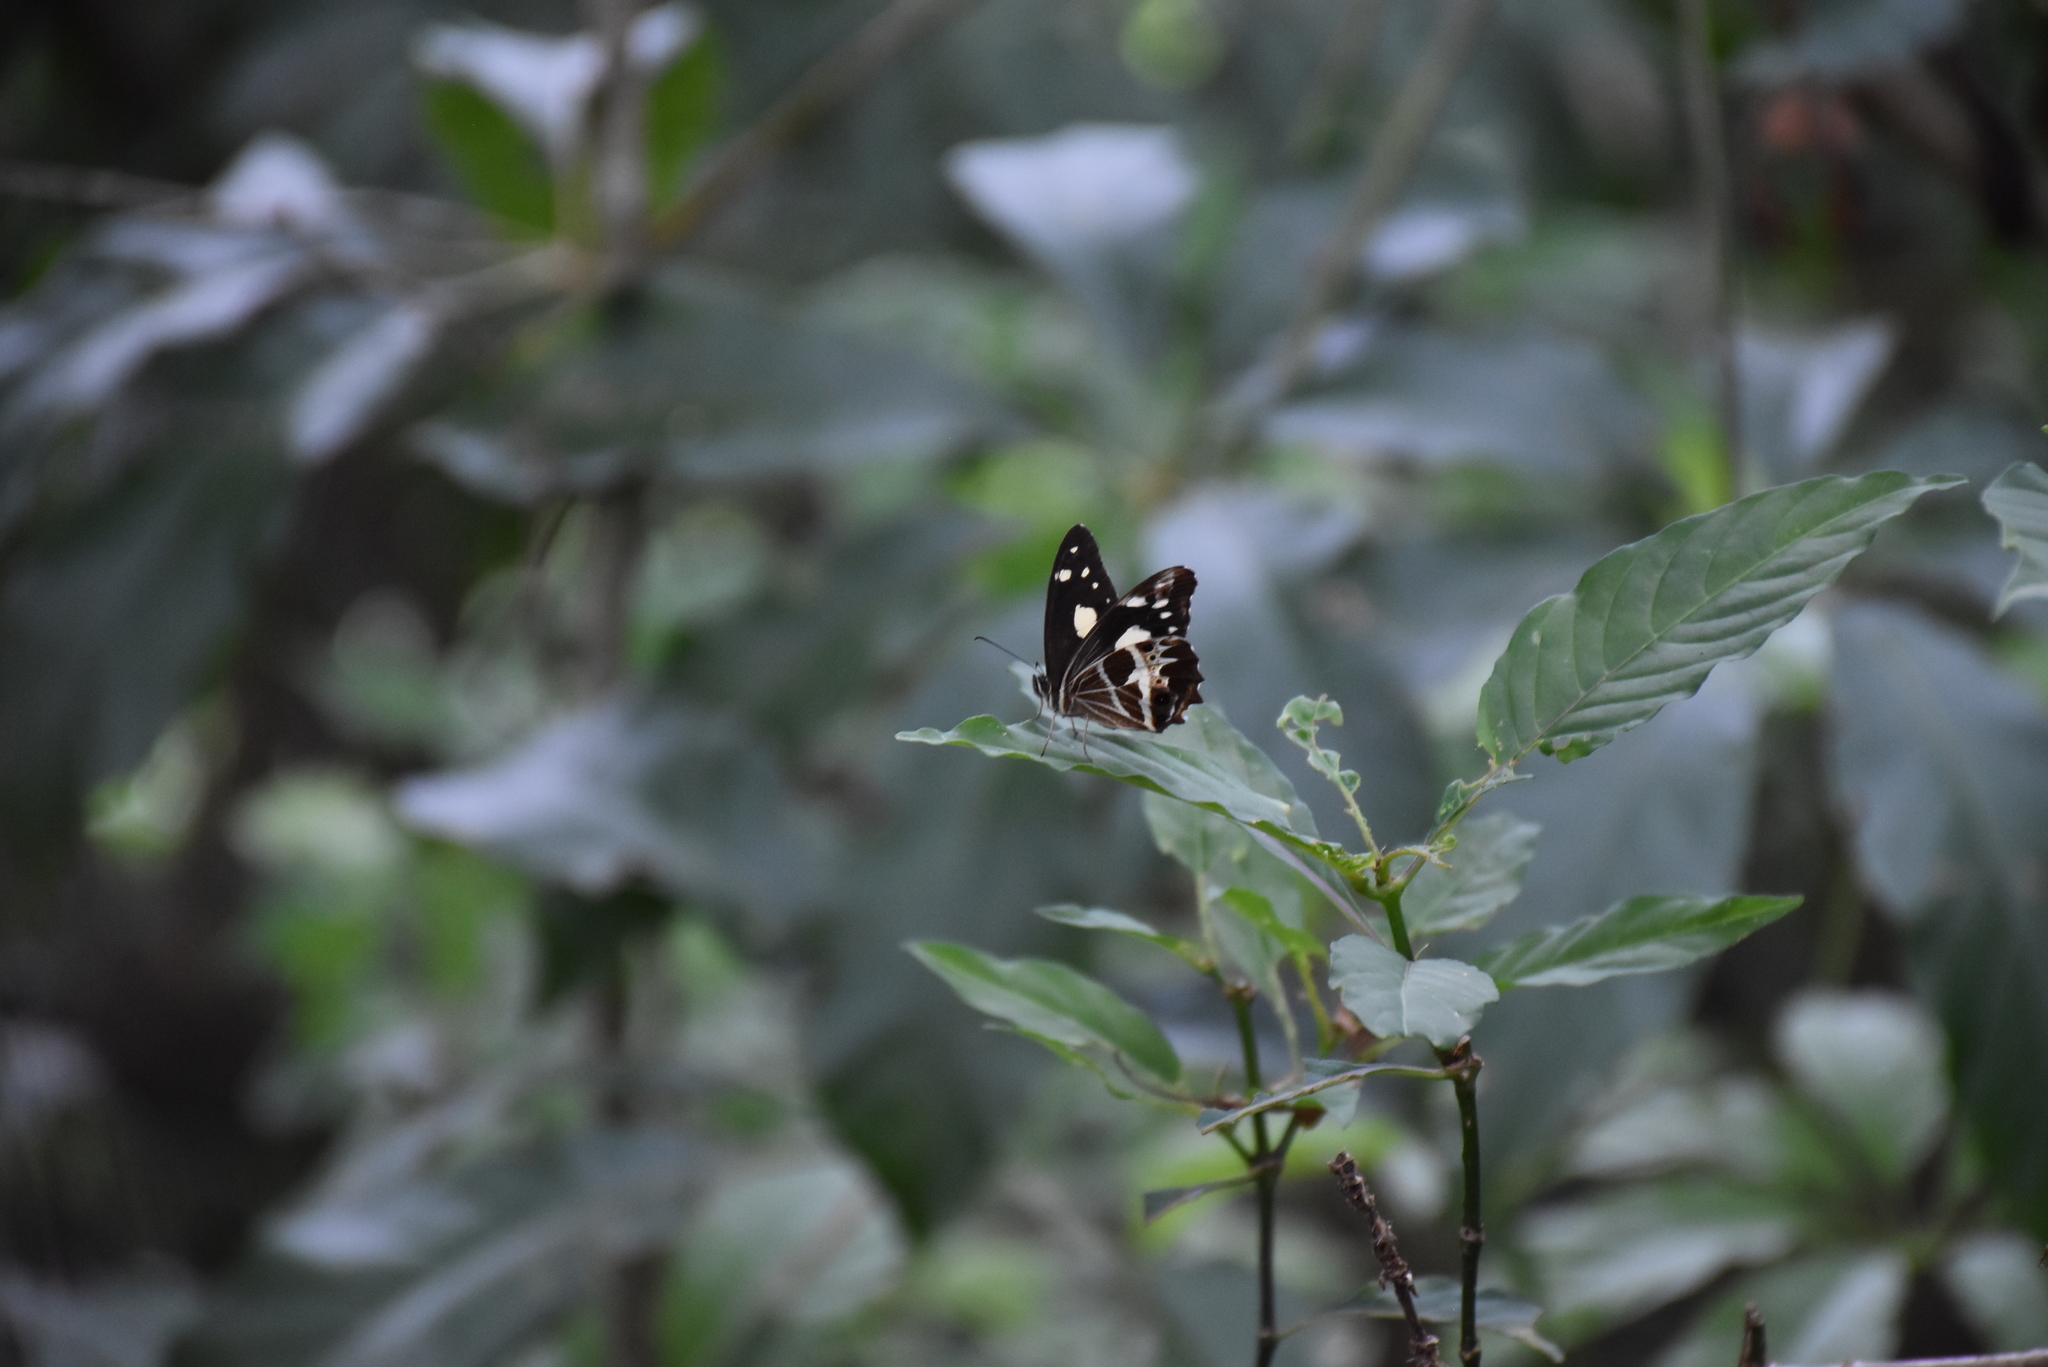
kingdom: Animalia
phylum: Arthropoda
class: Insecta
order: Lepidoptera
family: Nymphalidae
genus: Oxeoschistus
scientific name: Oxeoschistus tauropolis
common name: Starred oxeo
